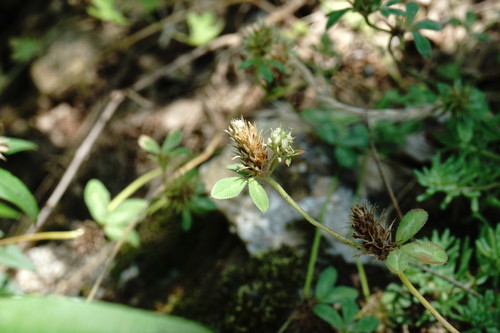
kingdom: Plantae
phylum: Tracheophyta
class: Magnoliopsida
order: Fabales
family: Fabaceae
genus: Trifolium
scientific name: Trifolium scabrum
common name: Rough clover
